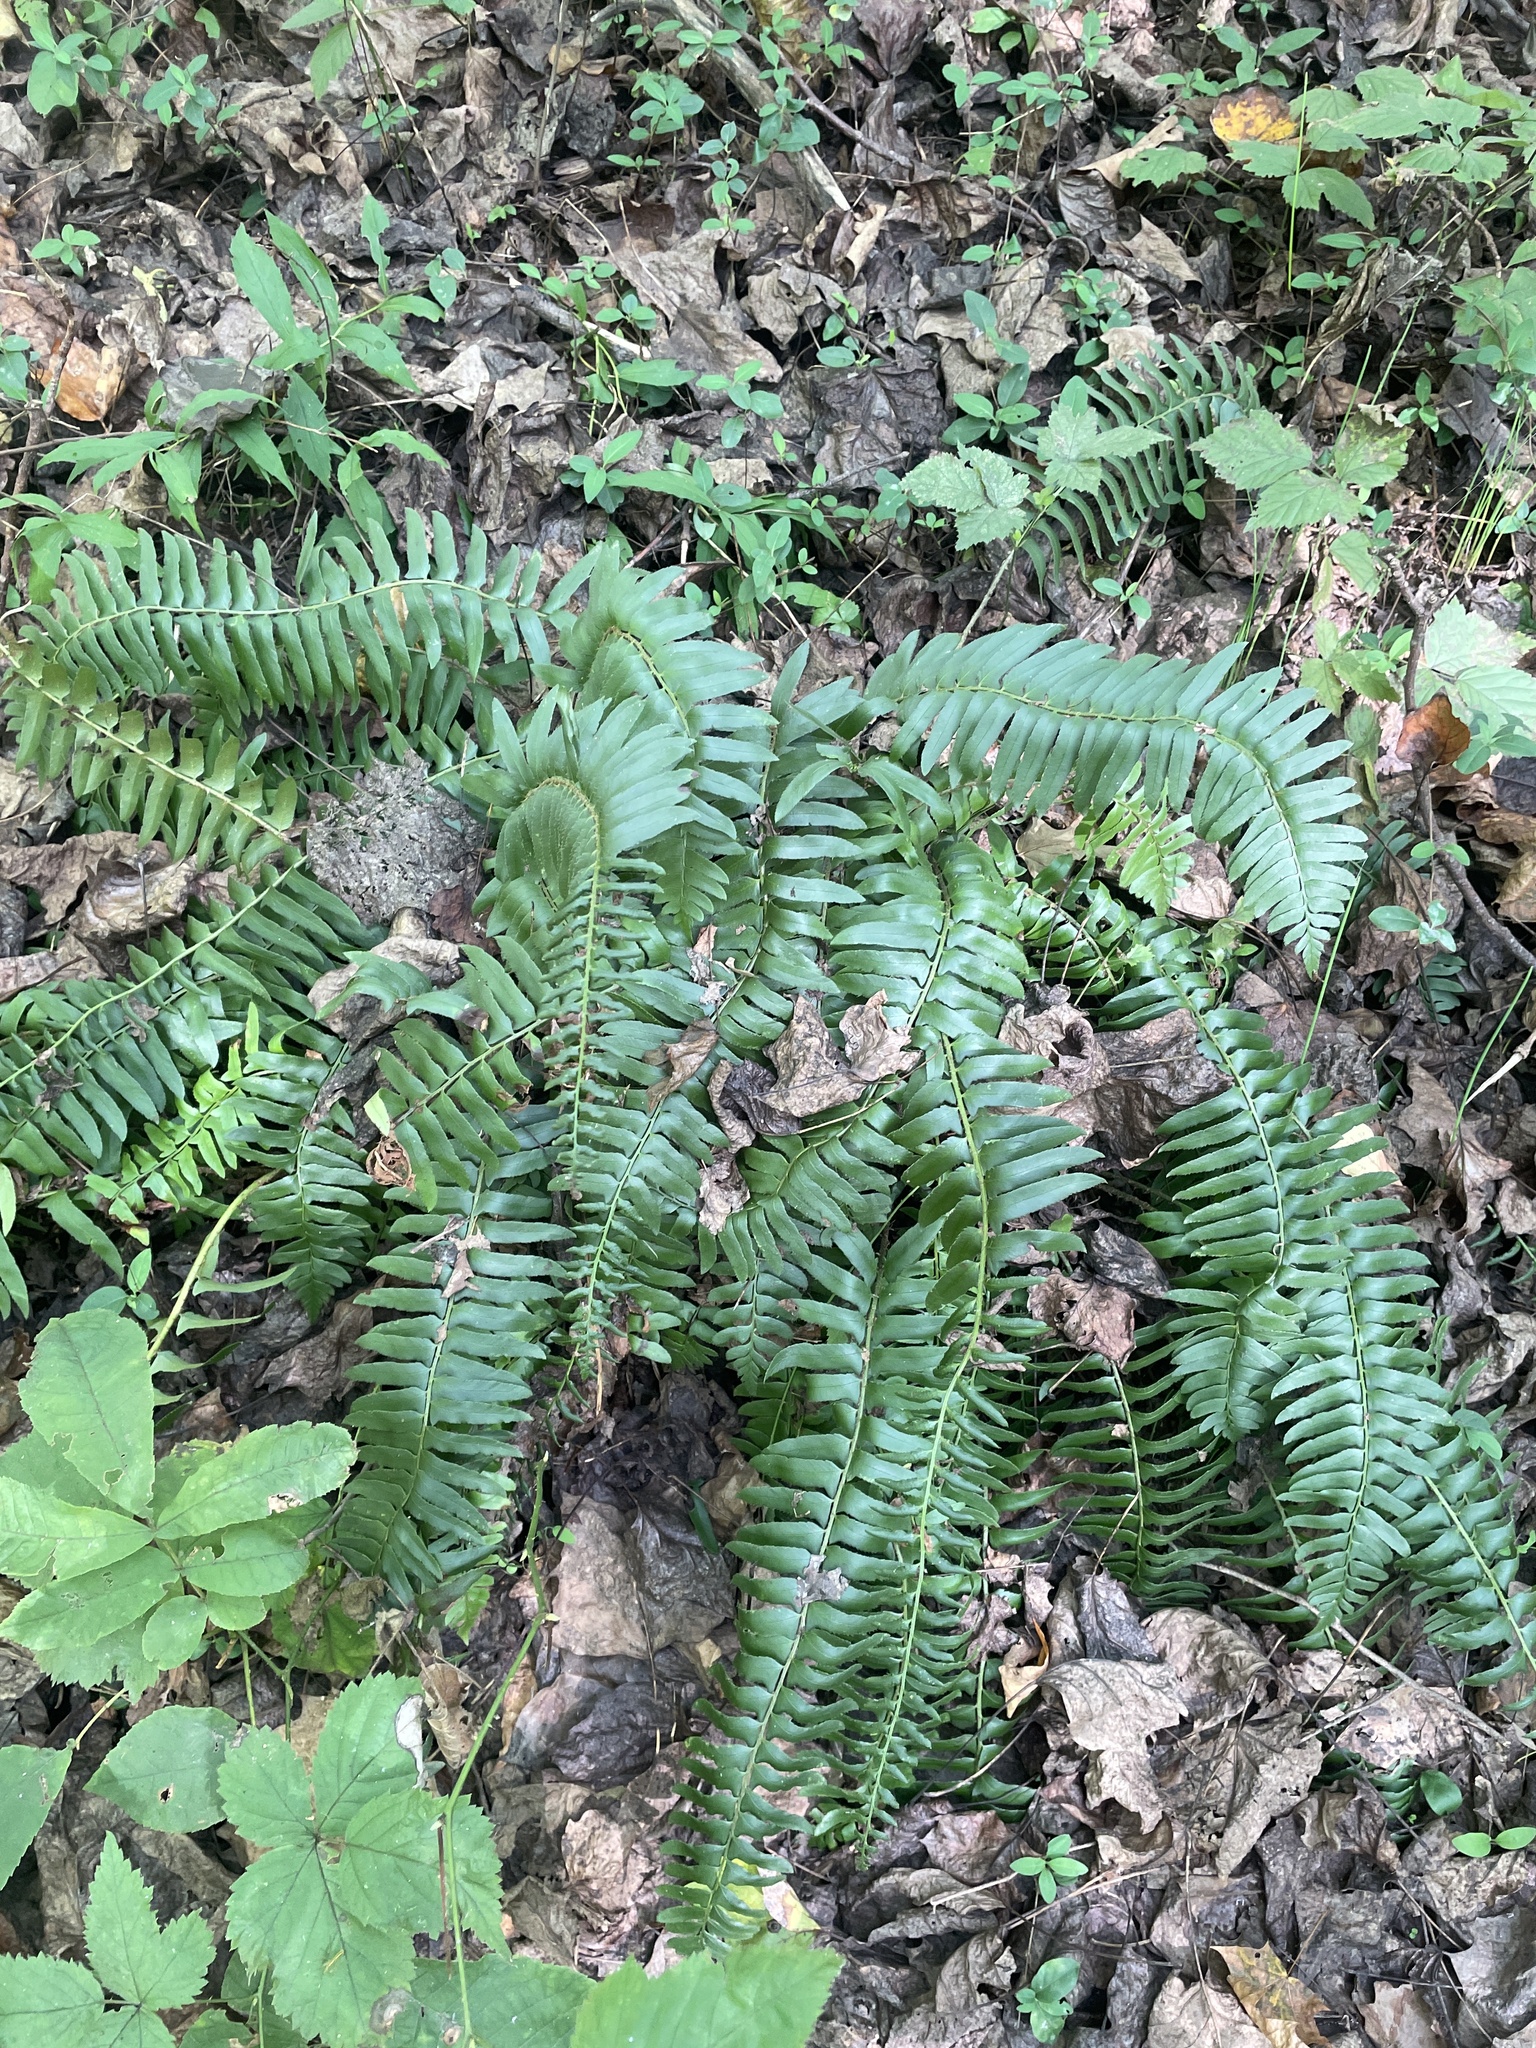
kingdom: Plantae
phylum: Tracheophyta
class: Polypodiopsida
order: Polypodiales
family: Dryopteridaceae
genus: Polystichum
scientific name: Polystichum acrostichoides
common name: Christmas fern
